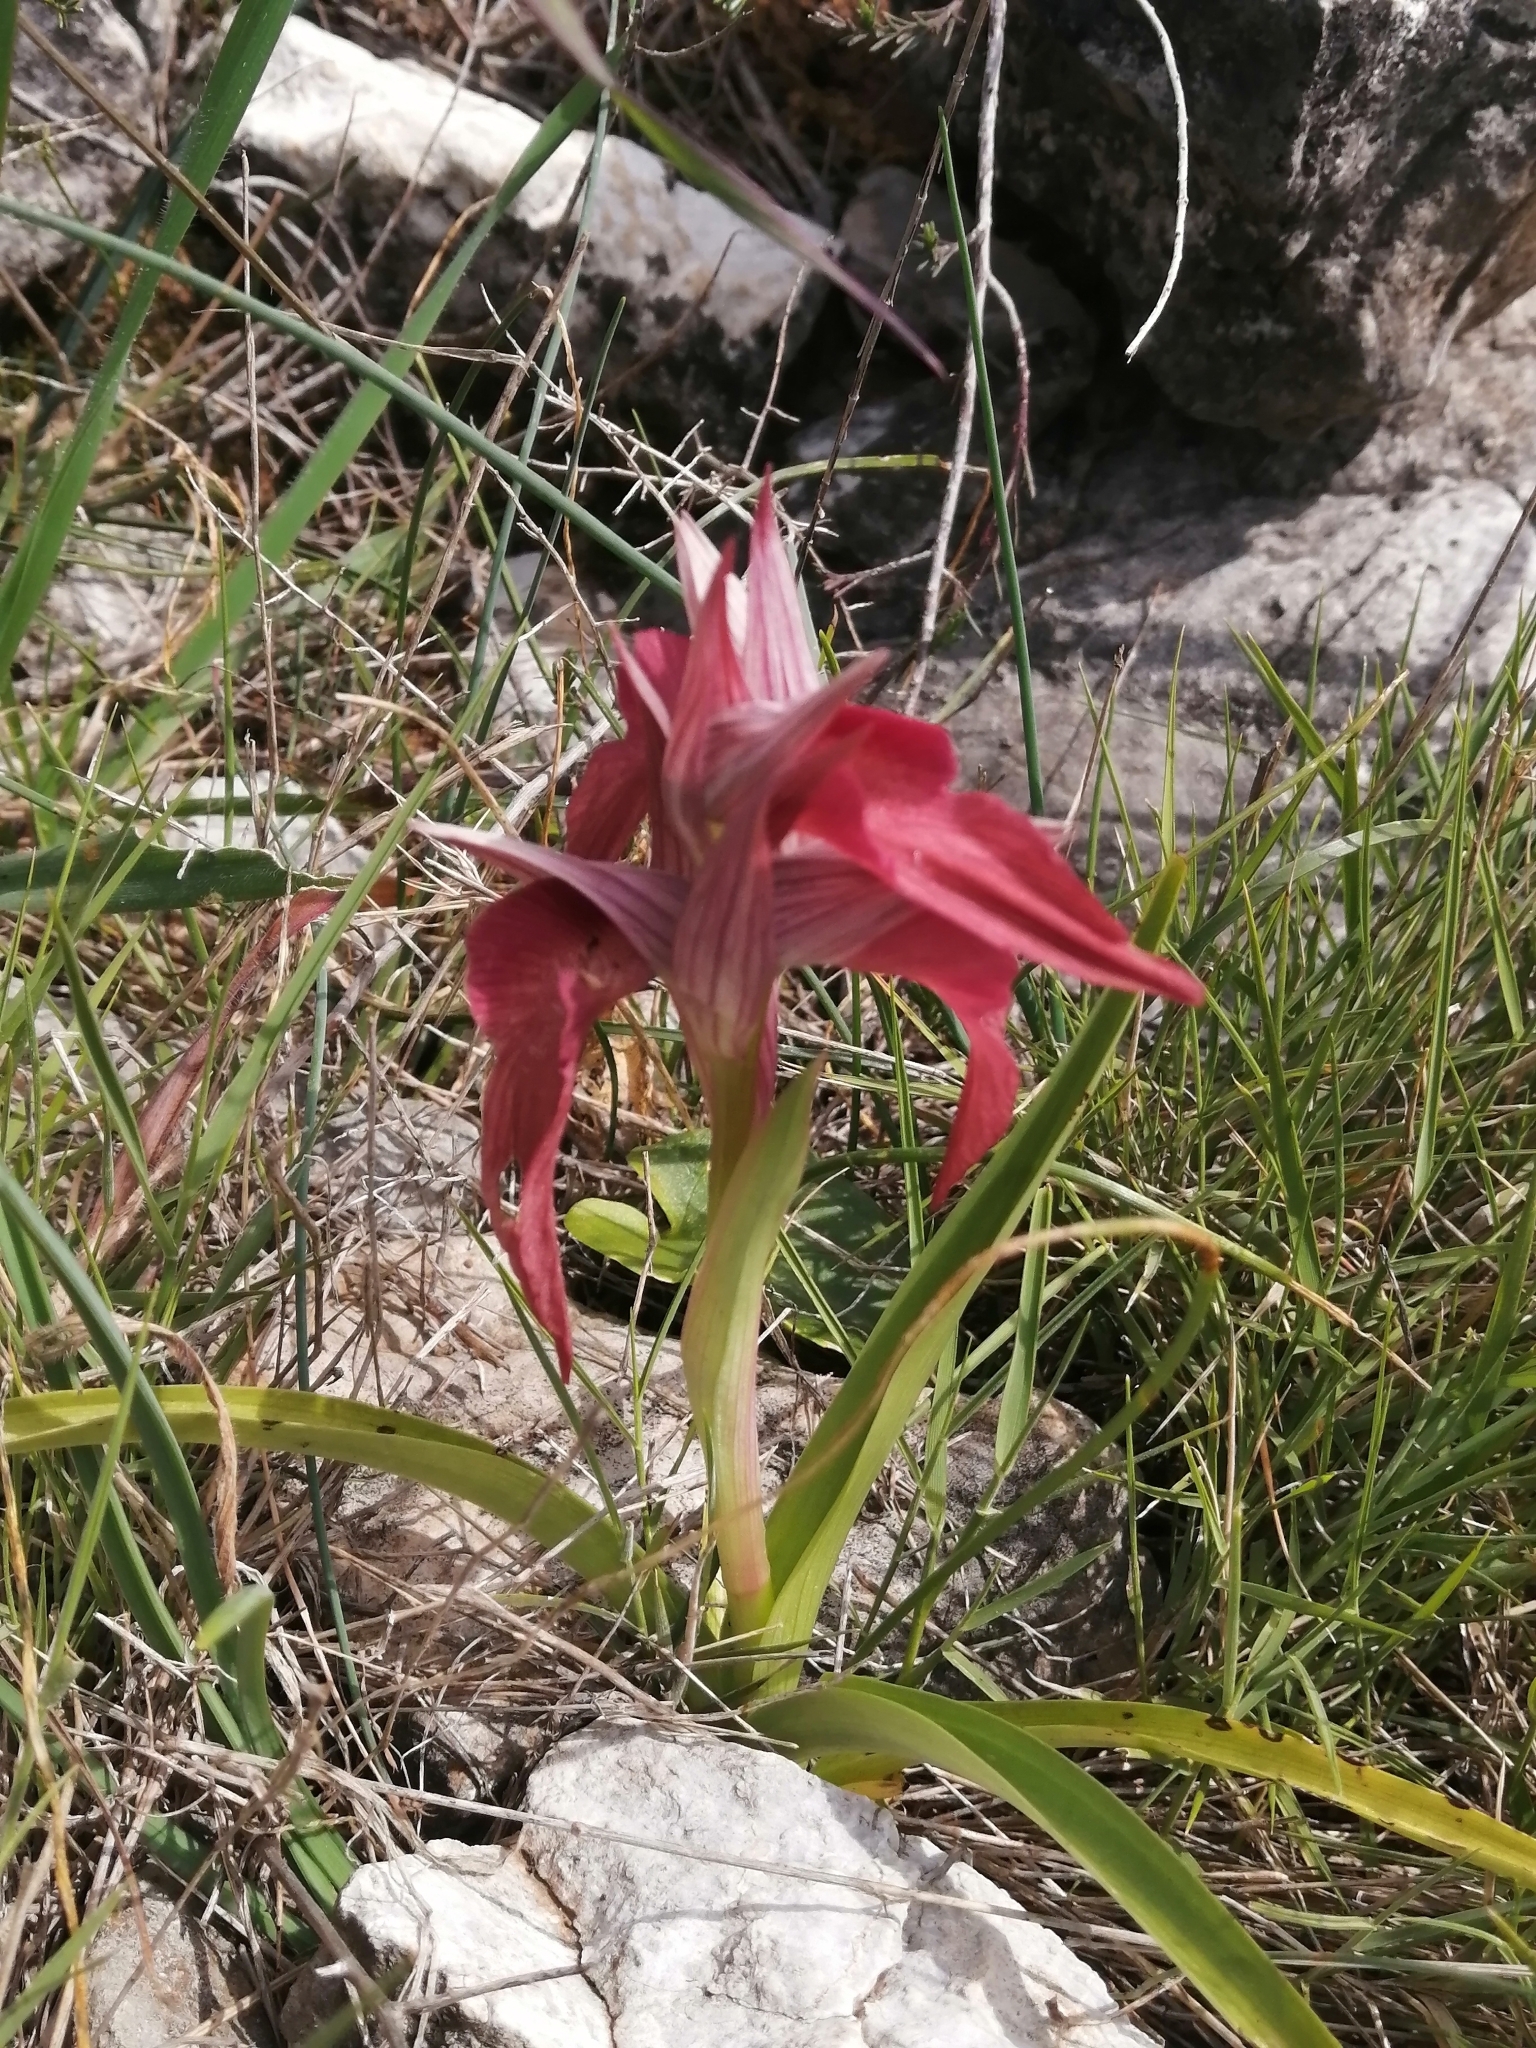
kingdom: Plantae
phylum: Tracheophyta
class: Liliopsida
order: Asparagales
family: Orchidaceae
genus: Serapias
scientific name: Serapias neglecta
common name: Neglected serapias
